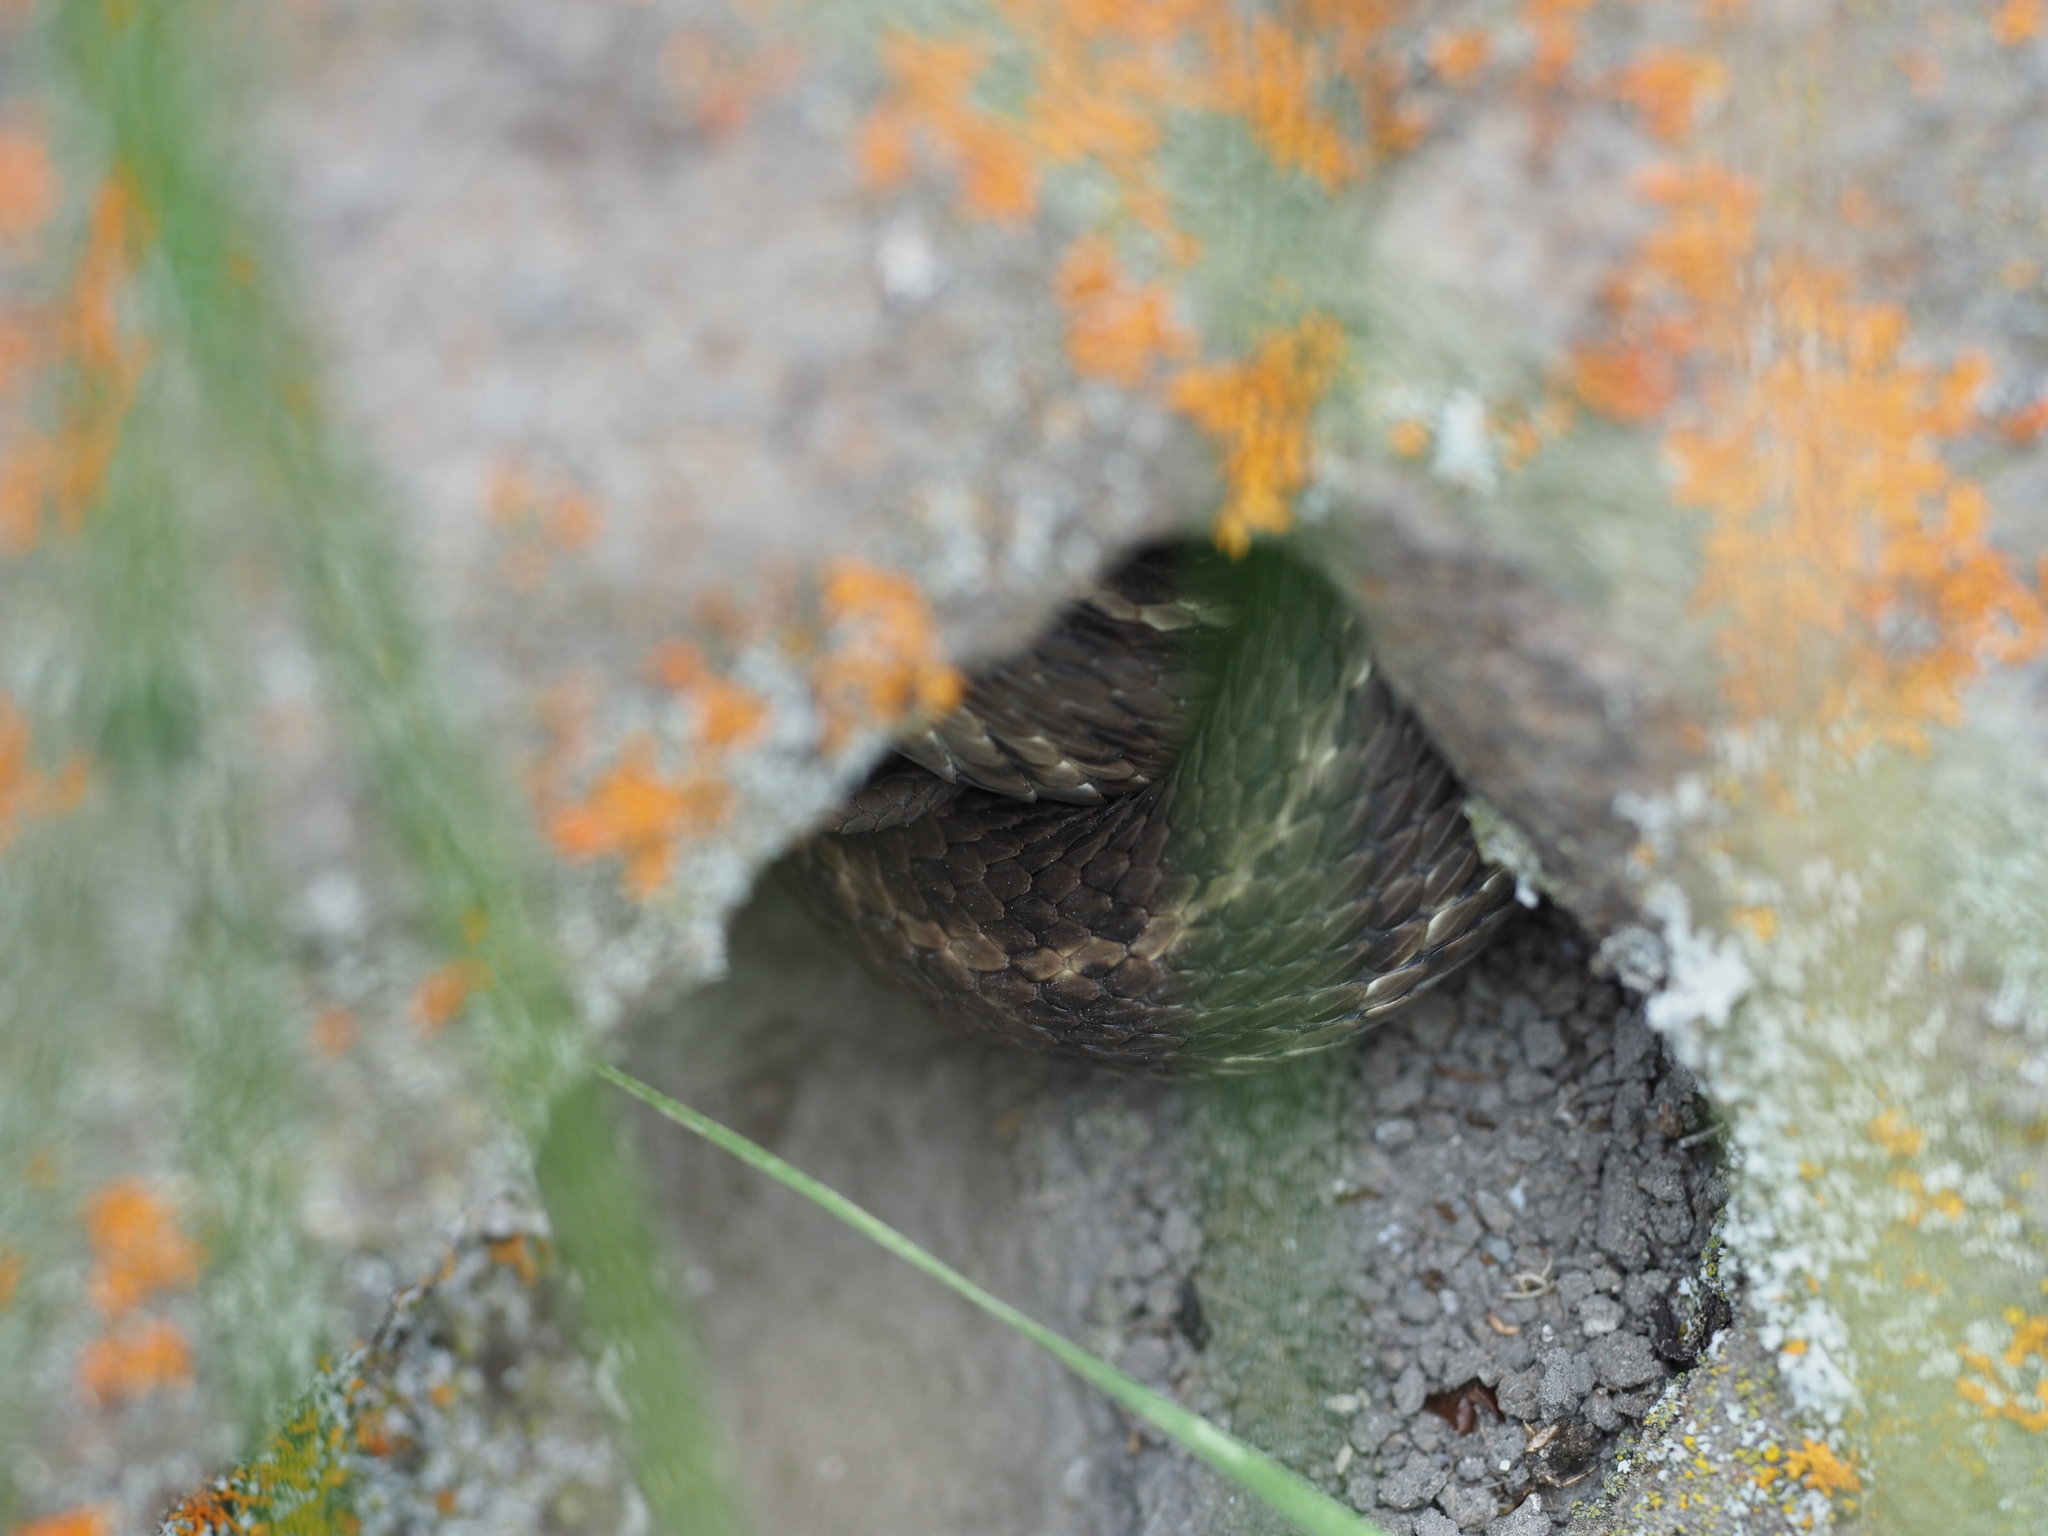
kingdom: Animalia
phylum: Chordata
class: Squamata
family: Colubridae
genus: Thamnophis
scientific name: Thamnophis elegans
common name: Western terrestrial garter snake
